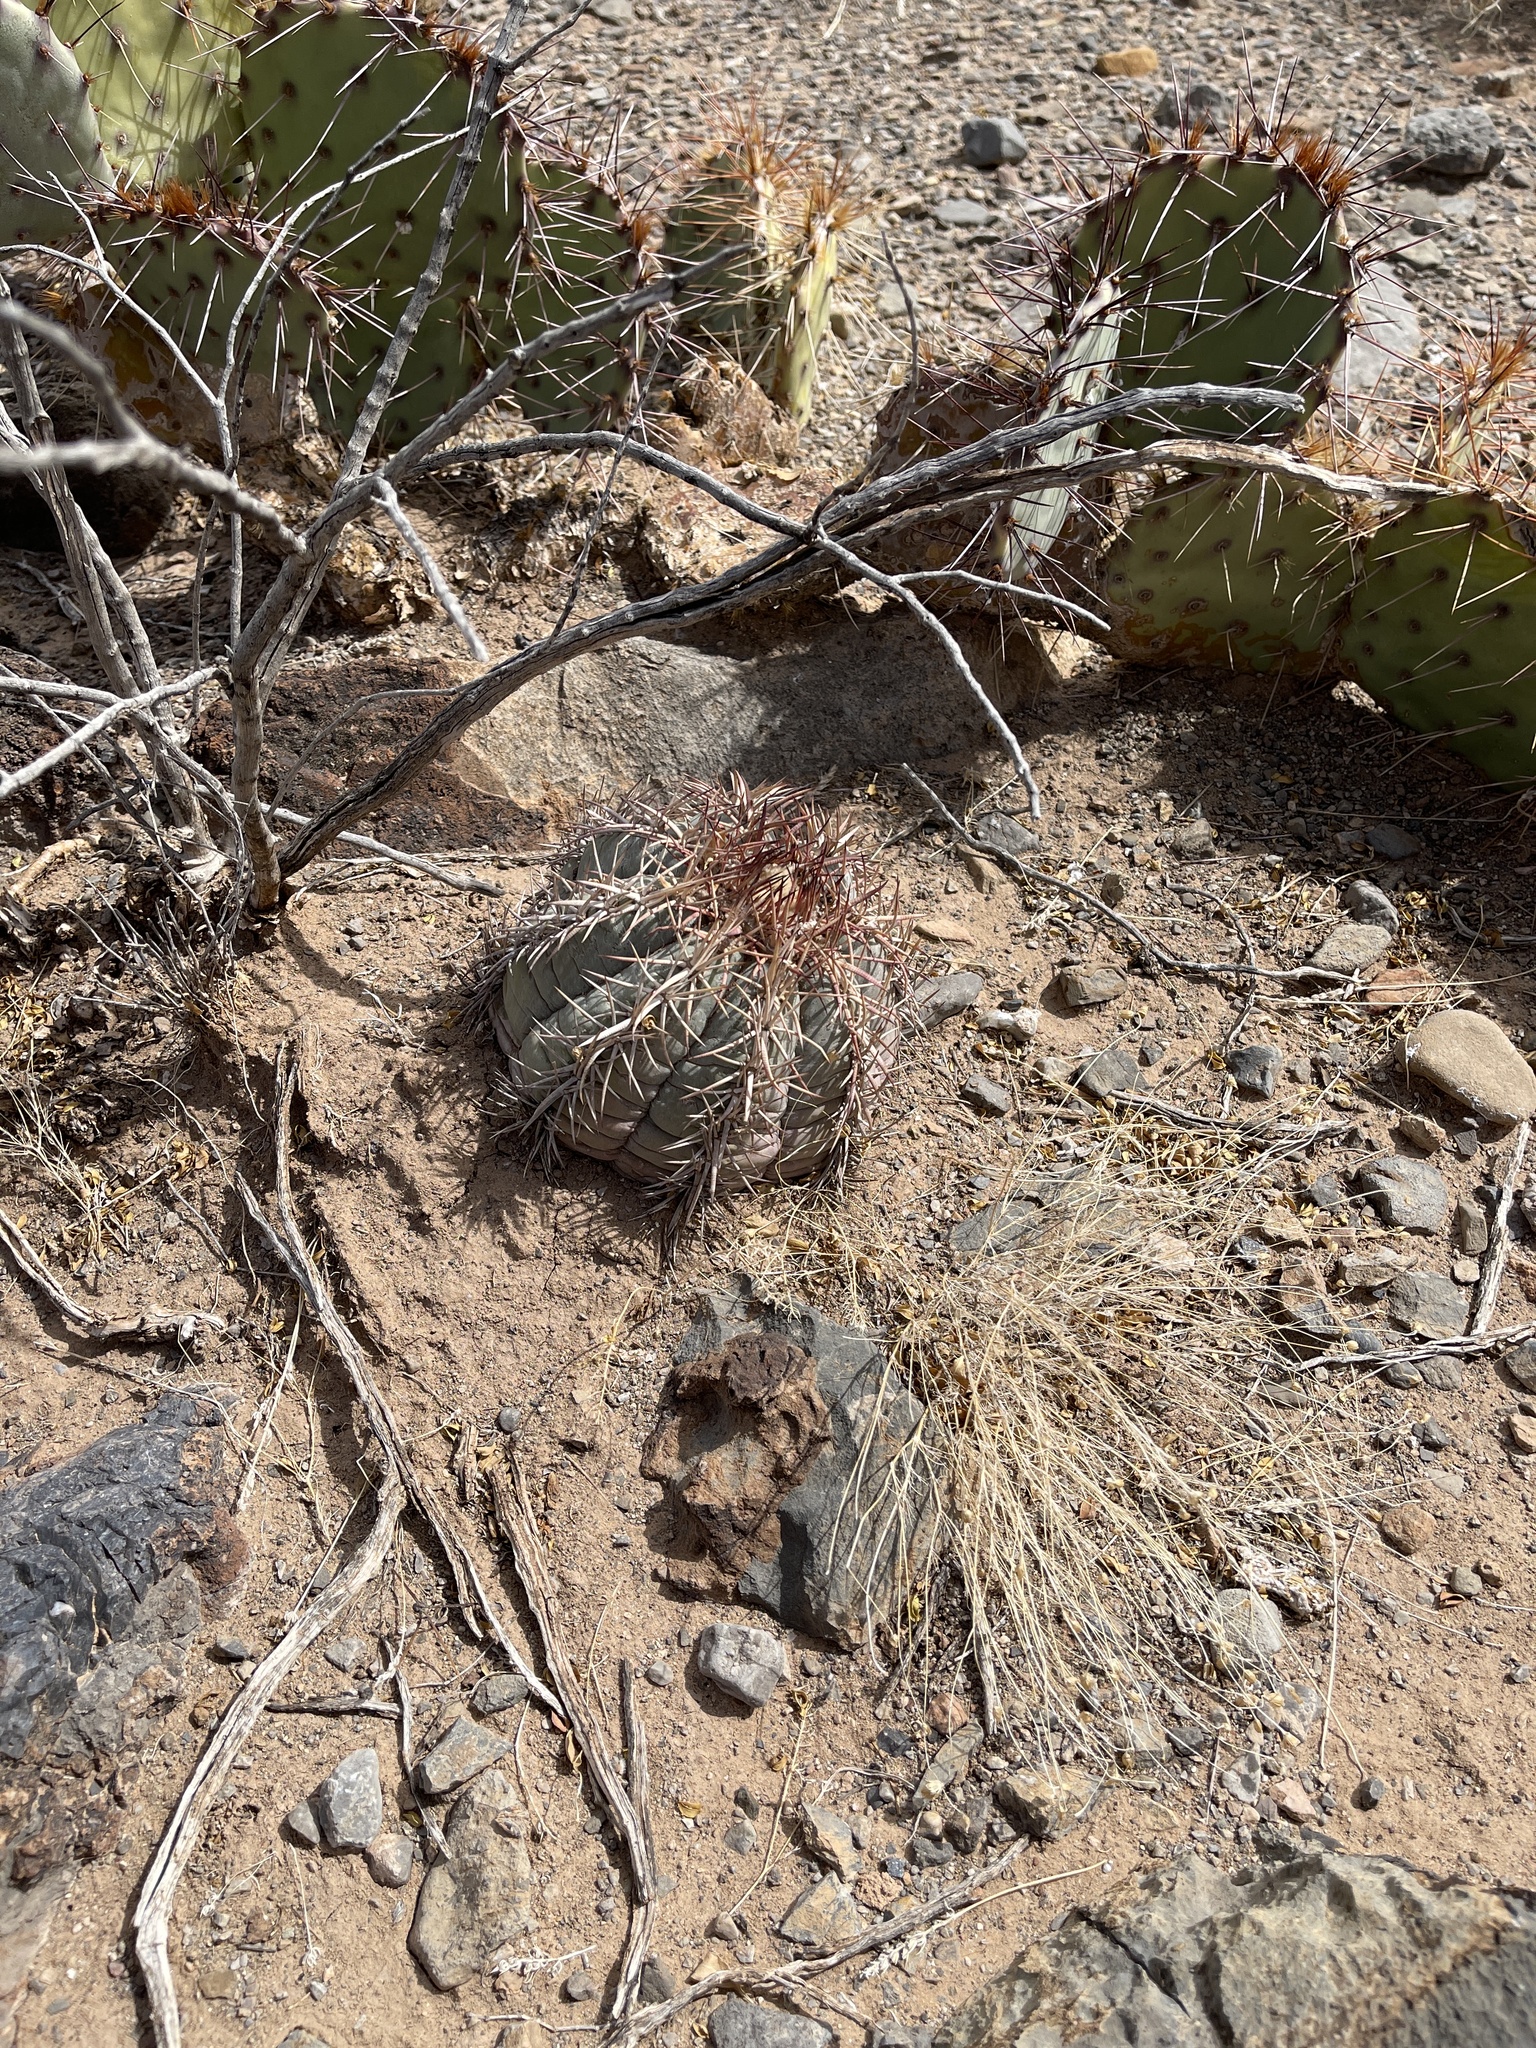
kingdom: Plantae
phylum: Tracheophyta
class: Magnoliopsida
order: Caryophyllales
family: Cactaceae
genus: Echinocactus
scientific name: Echinocactus horizonthalonius
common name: Devilshead
